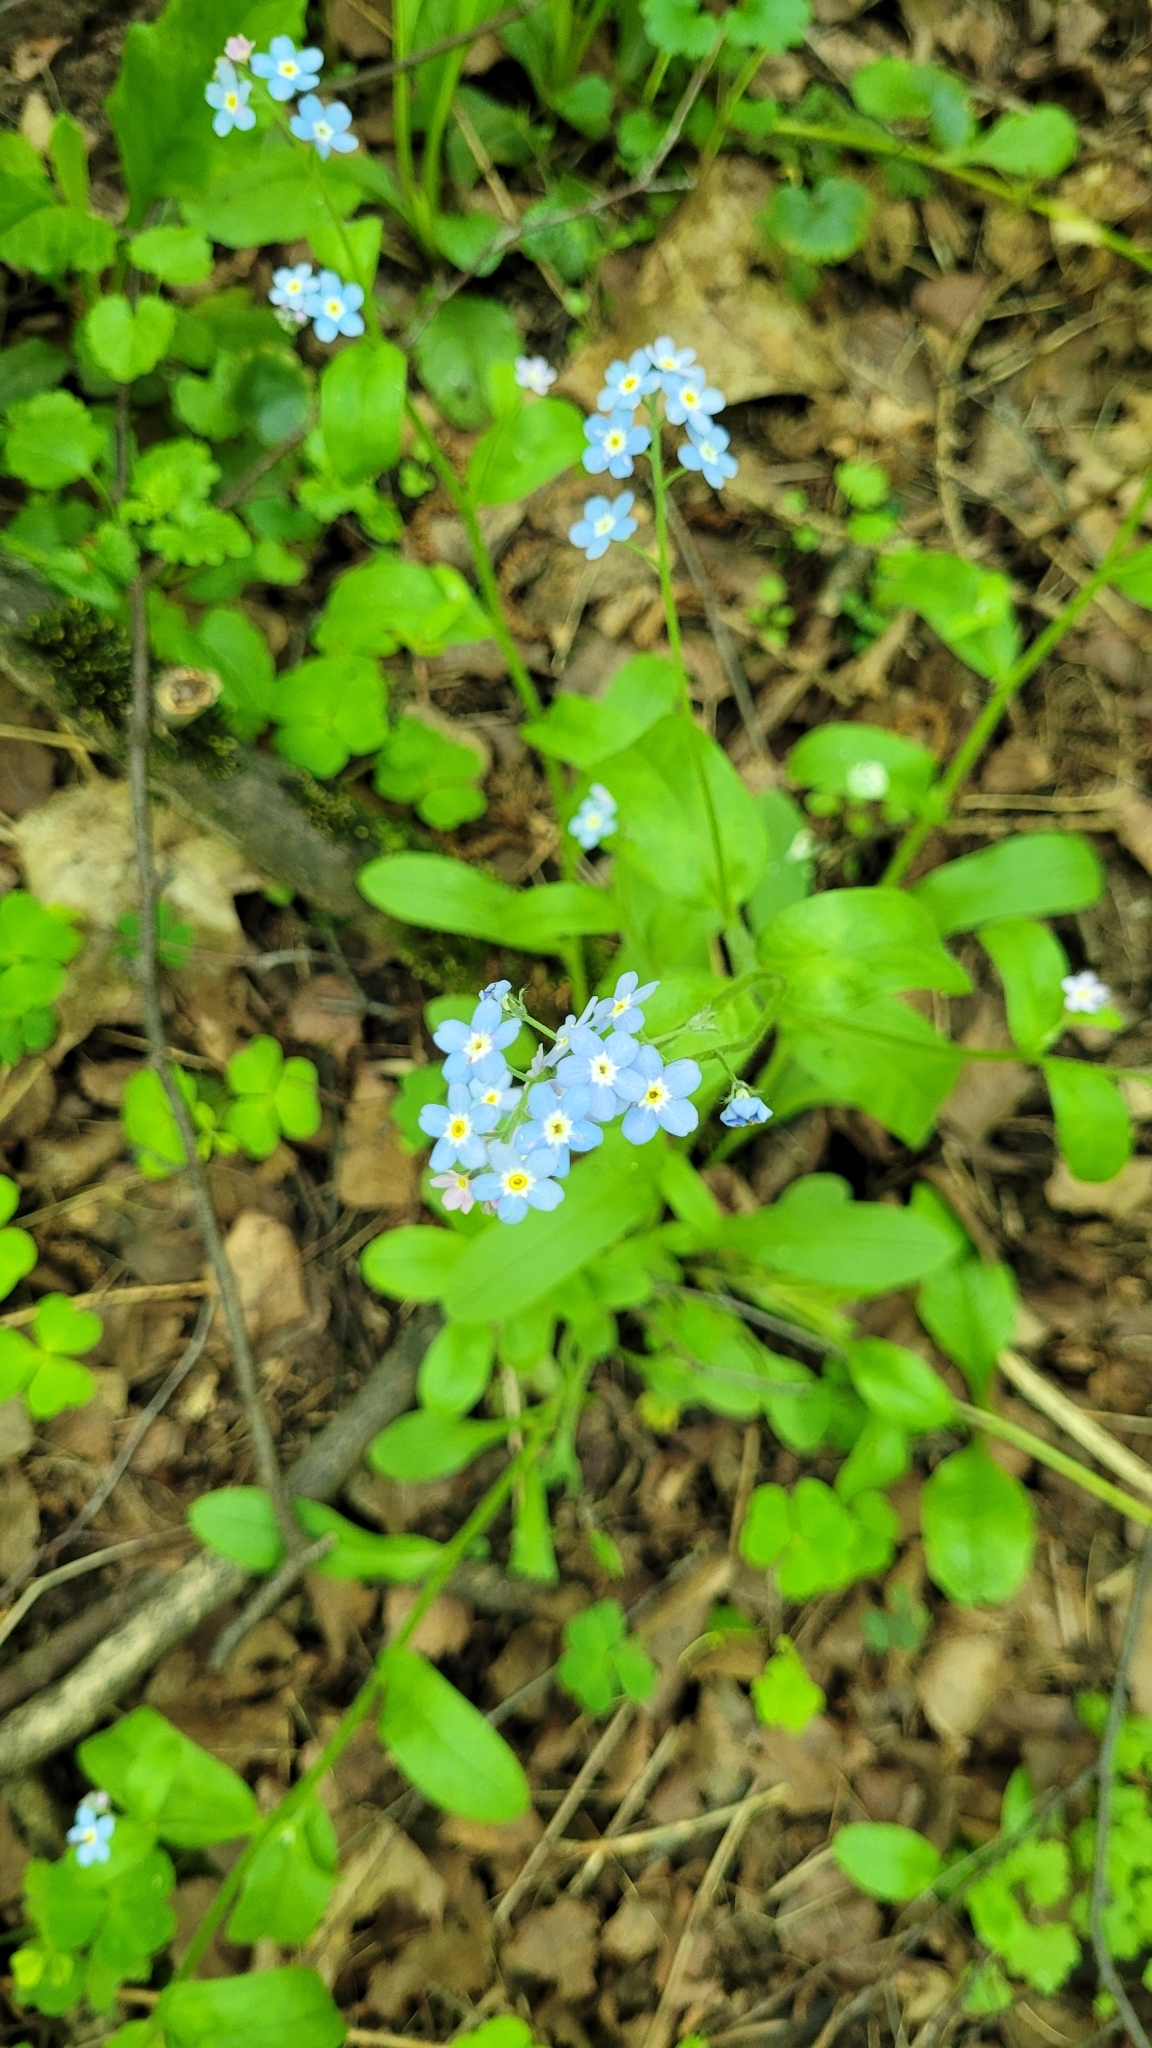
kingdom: Plantae
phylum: Tracheophyta
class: Magnoliopsida
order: Boraginales
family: Boraginaceae
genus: Myosotis
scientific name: Myosotis sylvatica
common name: Wood forget-me-not
